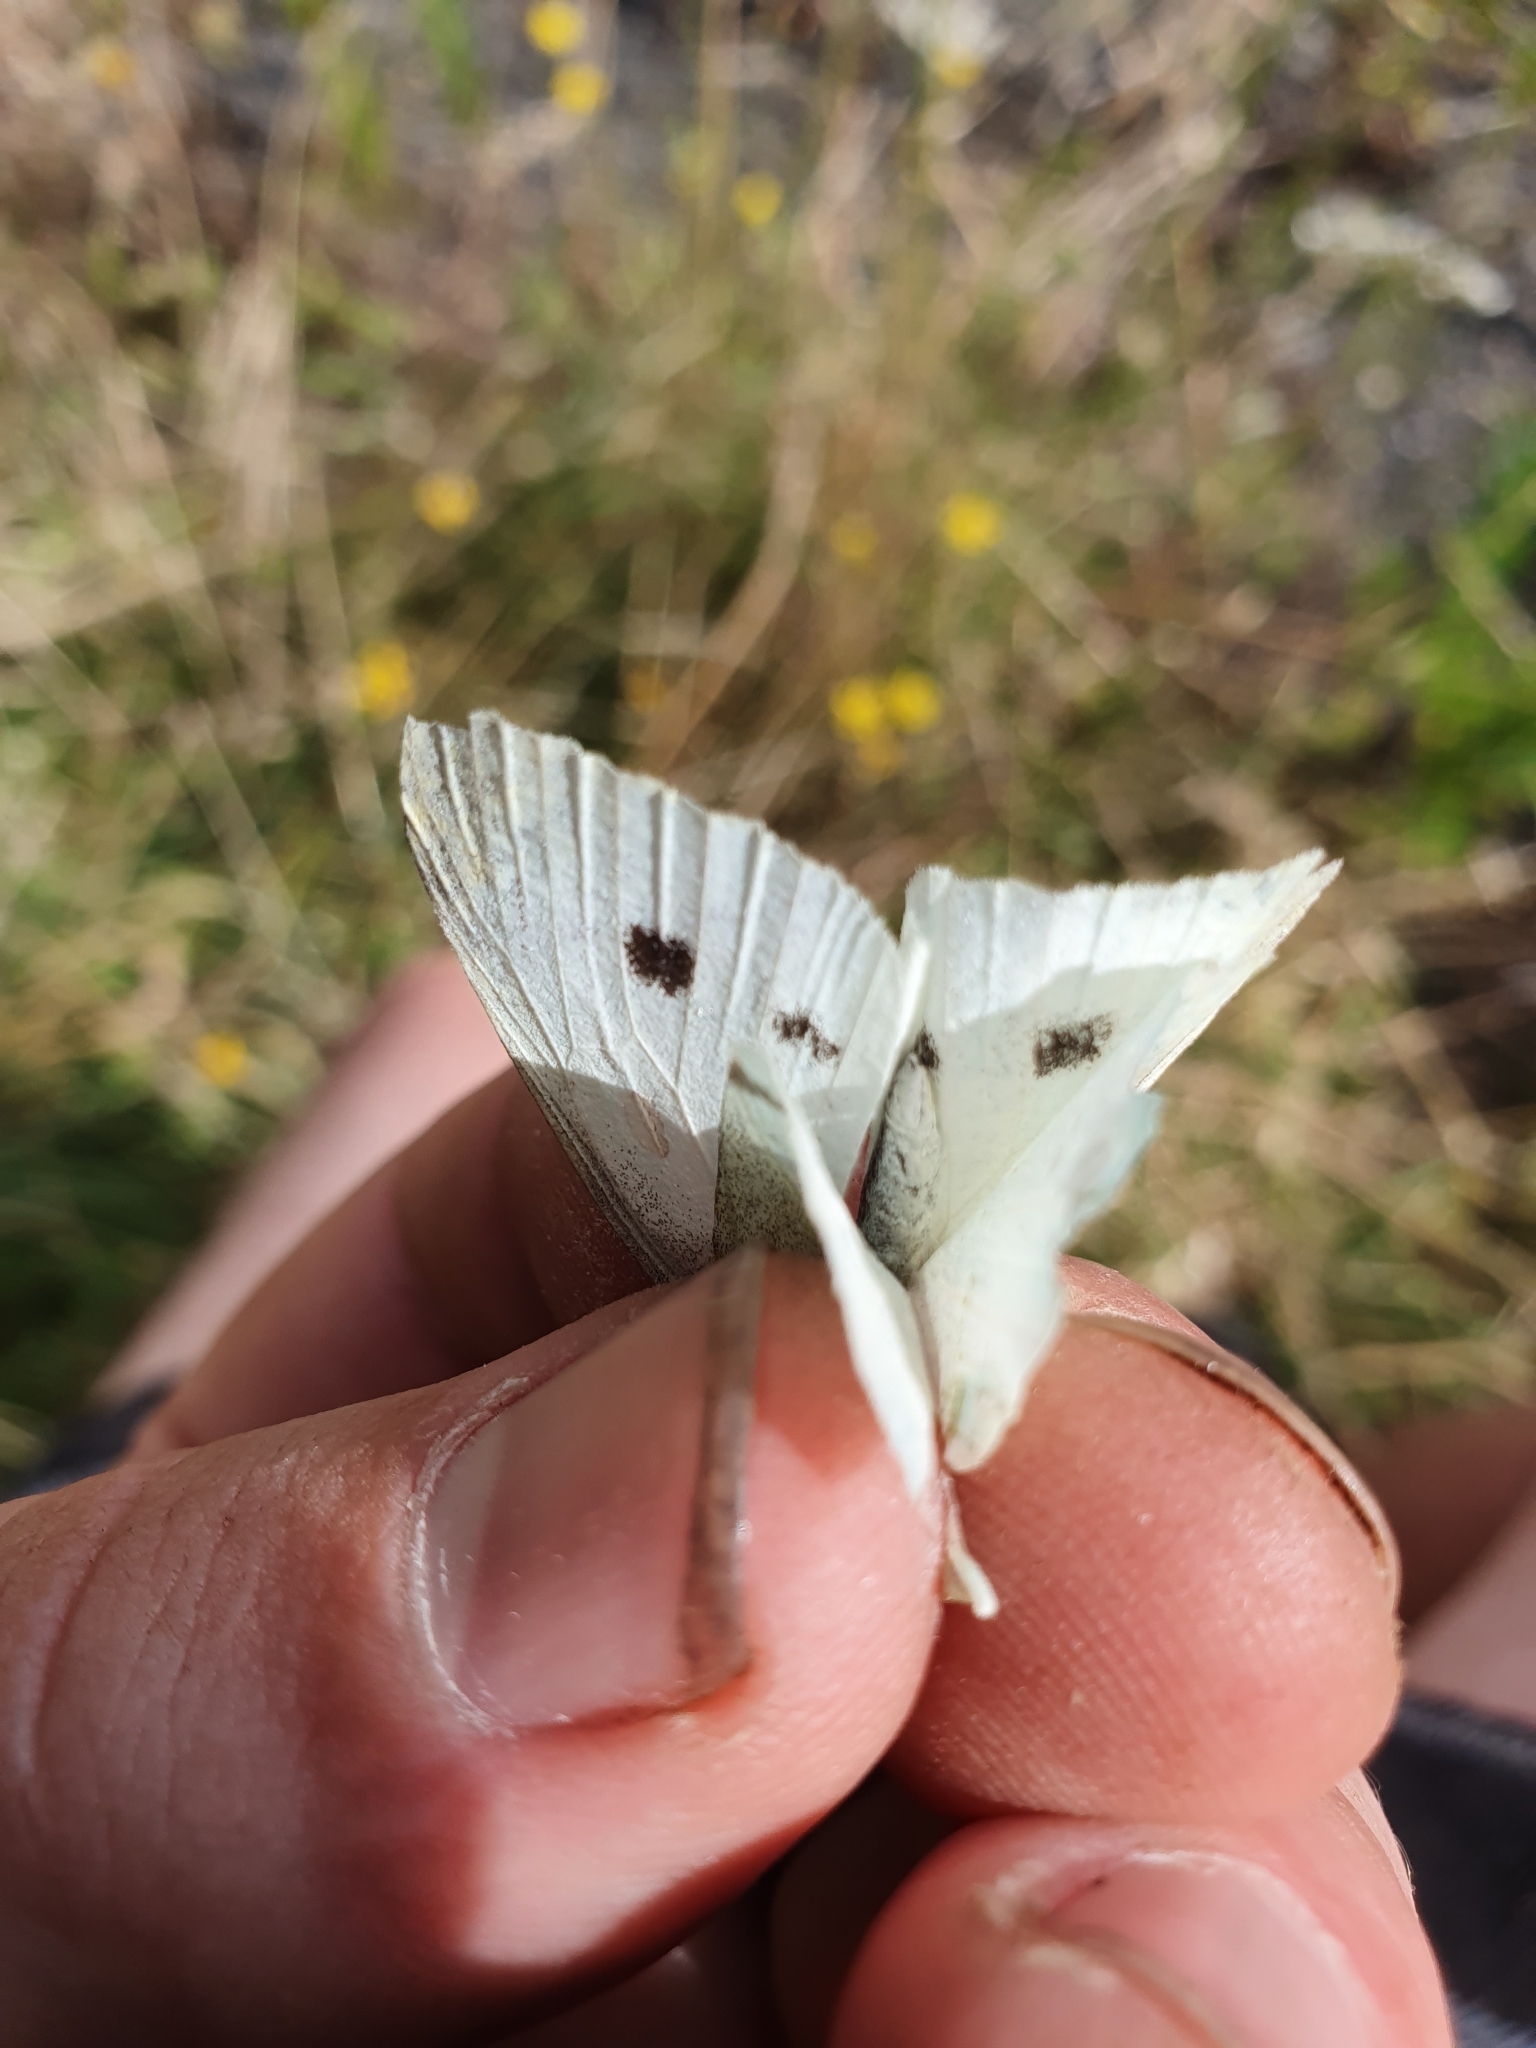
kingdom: Animalia
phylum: Arthropoda
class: Insecta
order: Lepidoptera
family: Pieridae
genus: Pieris
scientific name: Pieris rapae
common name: Small white
